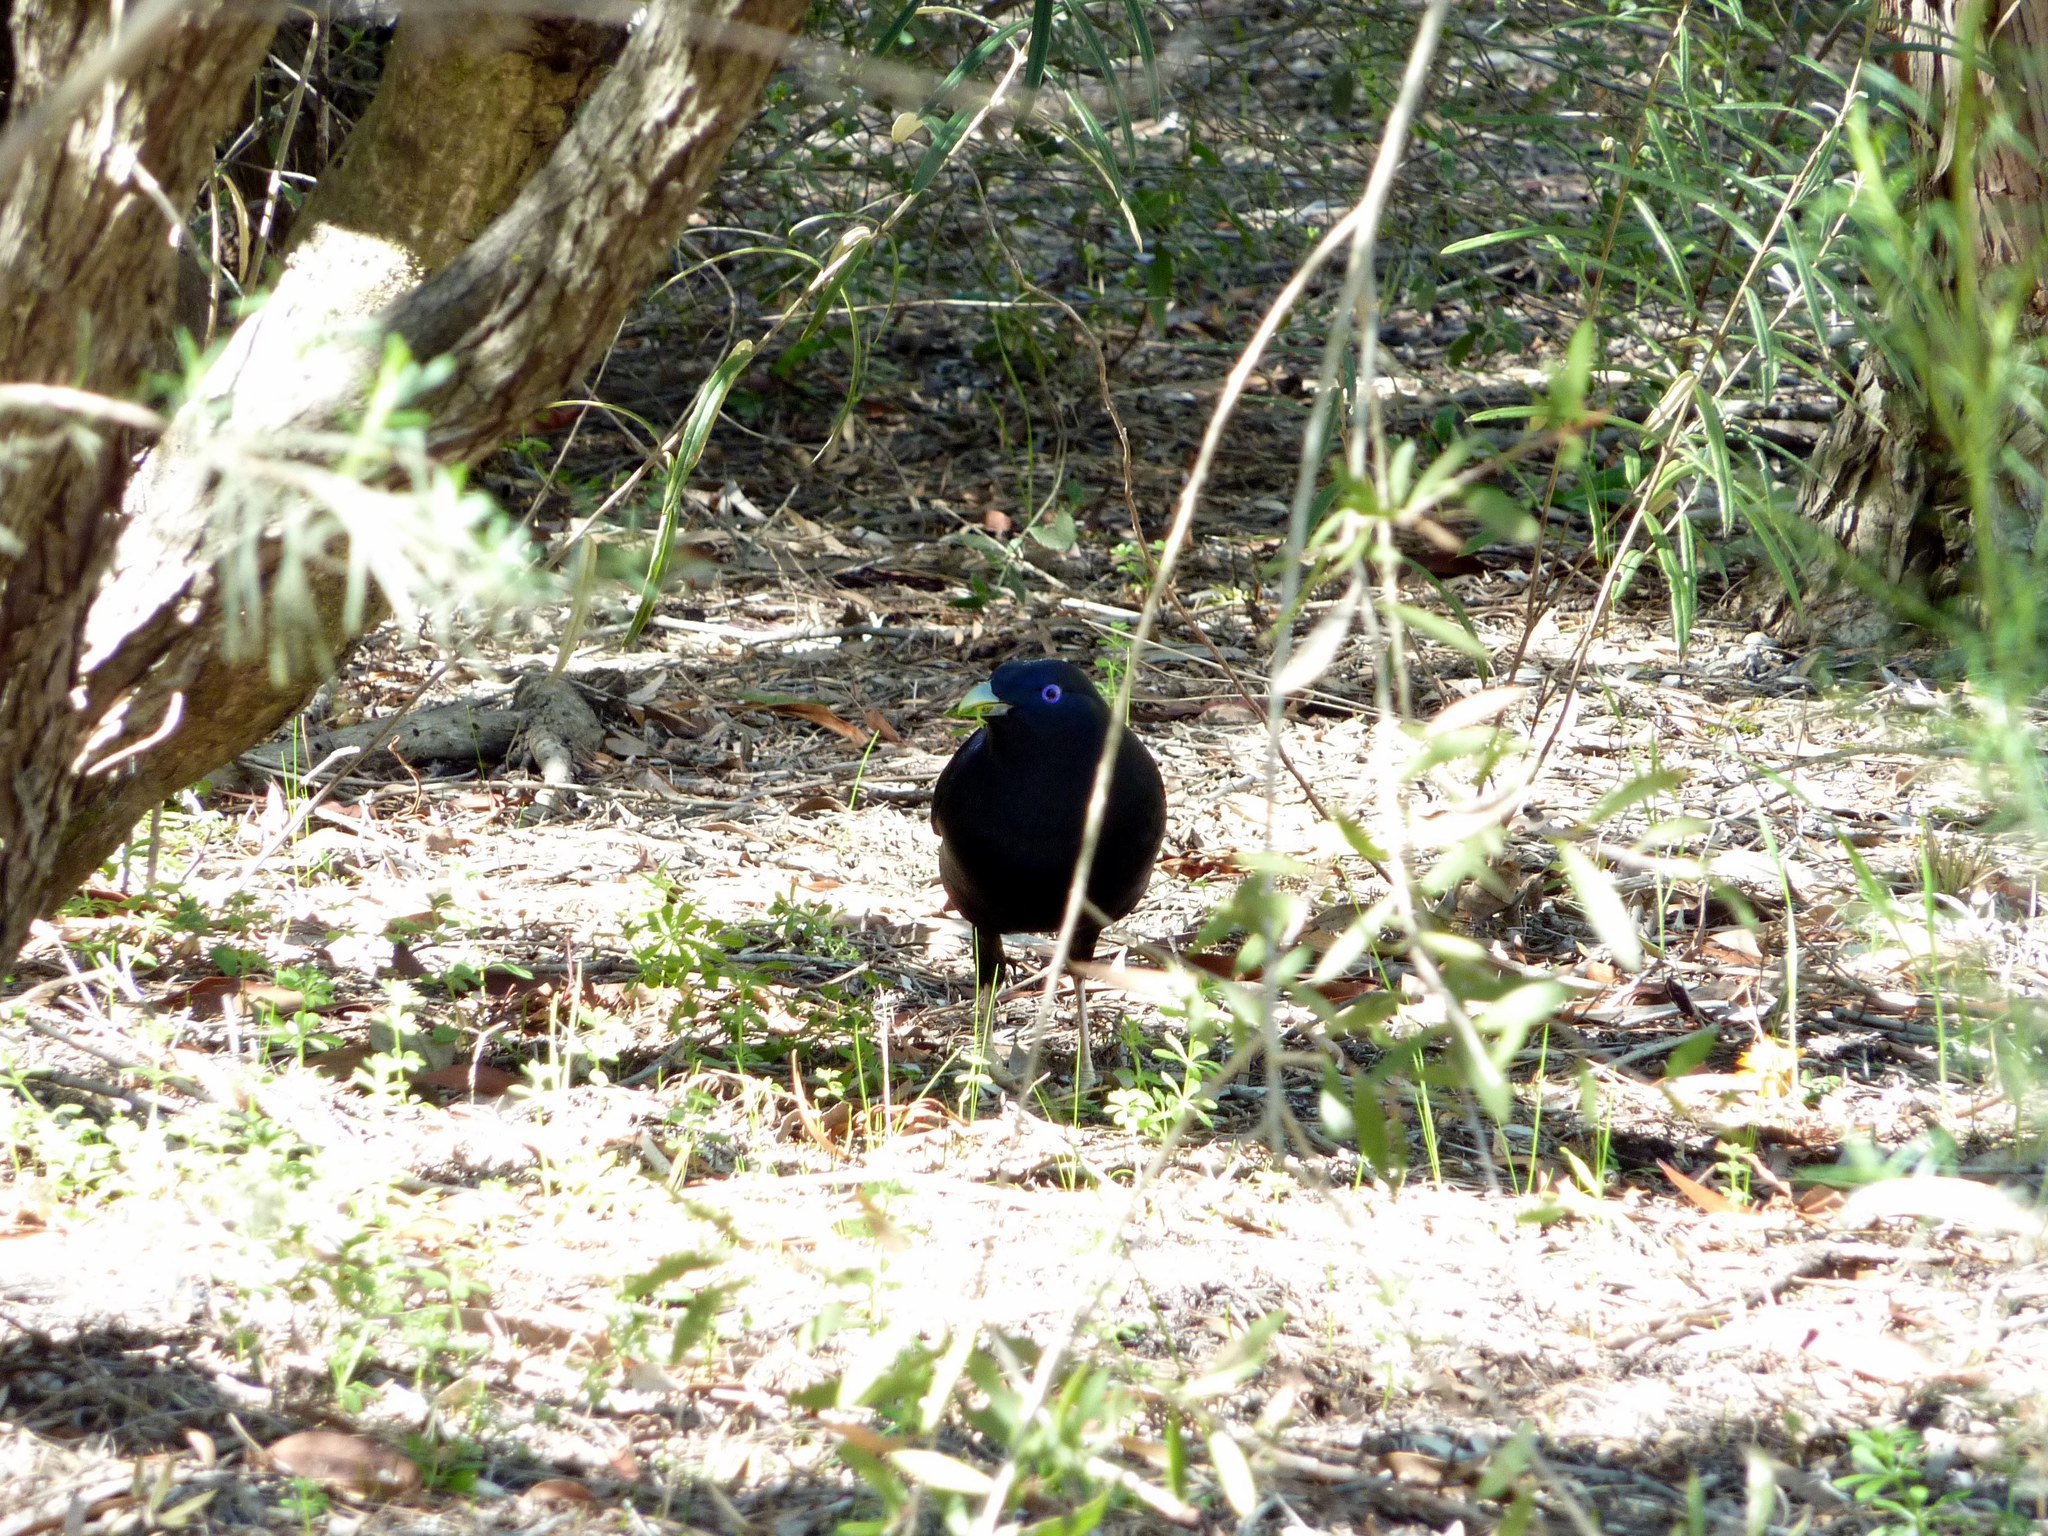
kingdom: Animalia
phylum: Chordata
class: Aves
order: Passeriformes
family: Ptilonorhynchidae
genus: Ptilonorhynchus
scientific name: Ptilonorhynchus violaceus
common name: Satin bowerbird
